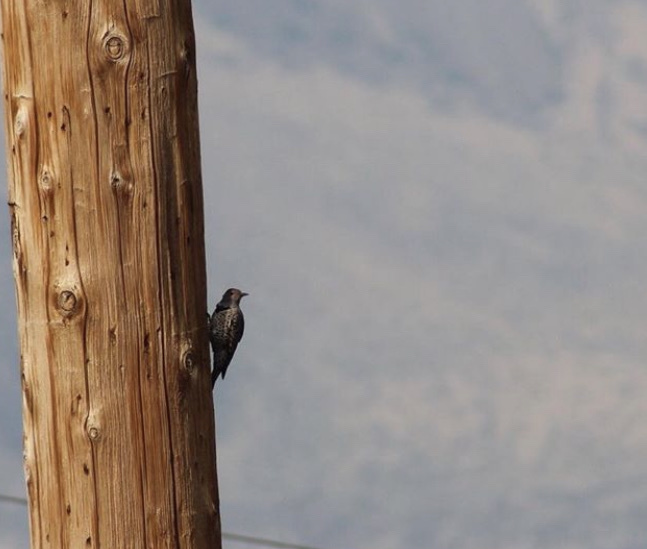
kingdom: Animalia
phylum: Chordata
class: Aves
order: Piciformes
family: Picidae
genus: Colaptes
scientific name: Colaptes auratus
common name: Northern flicker
